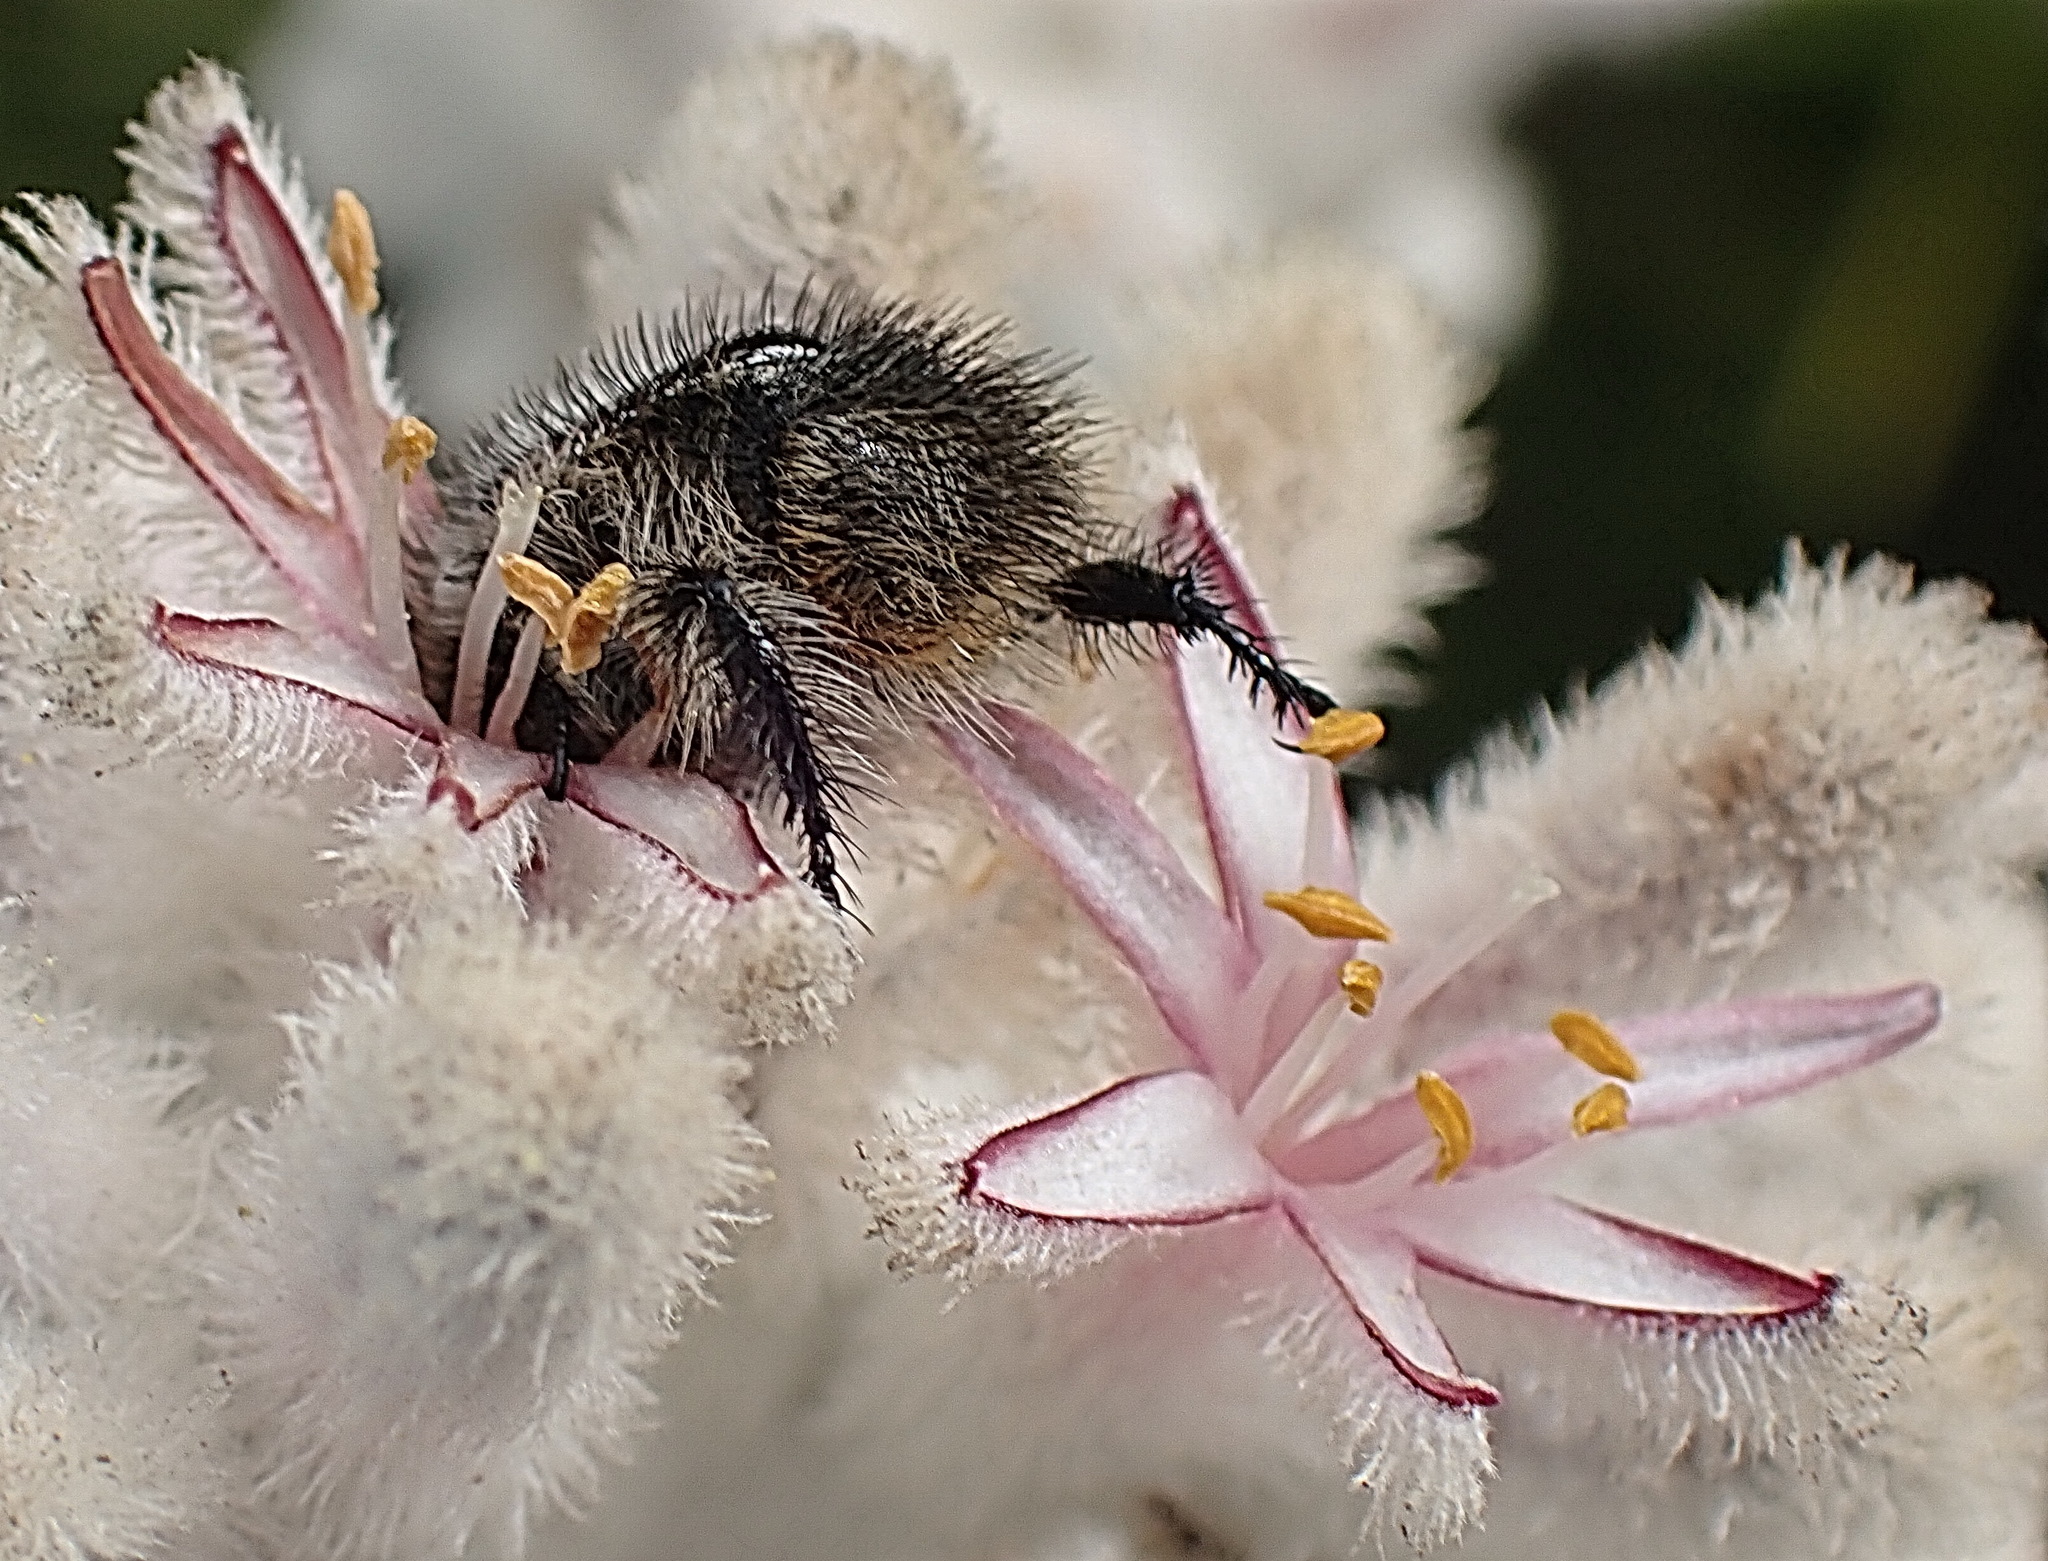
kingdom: Plantae
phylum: Tracheophyta
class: Liliopsida
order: Asparagales
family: Lanariaceae
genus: Lanaria
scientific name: Lanaria lanata
